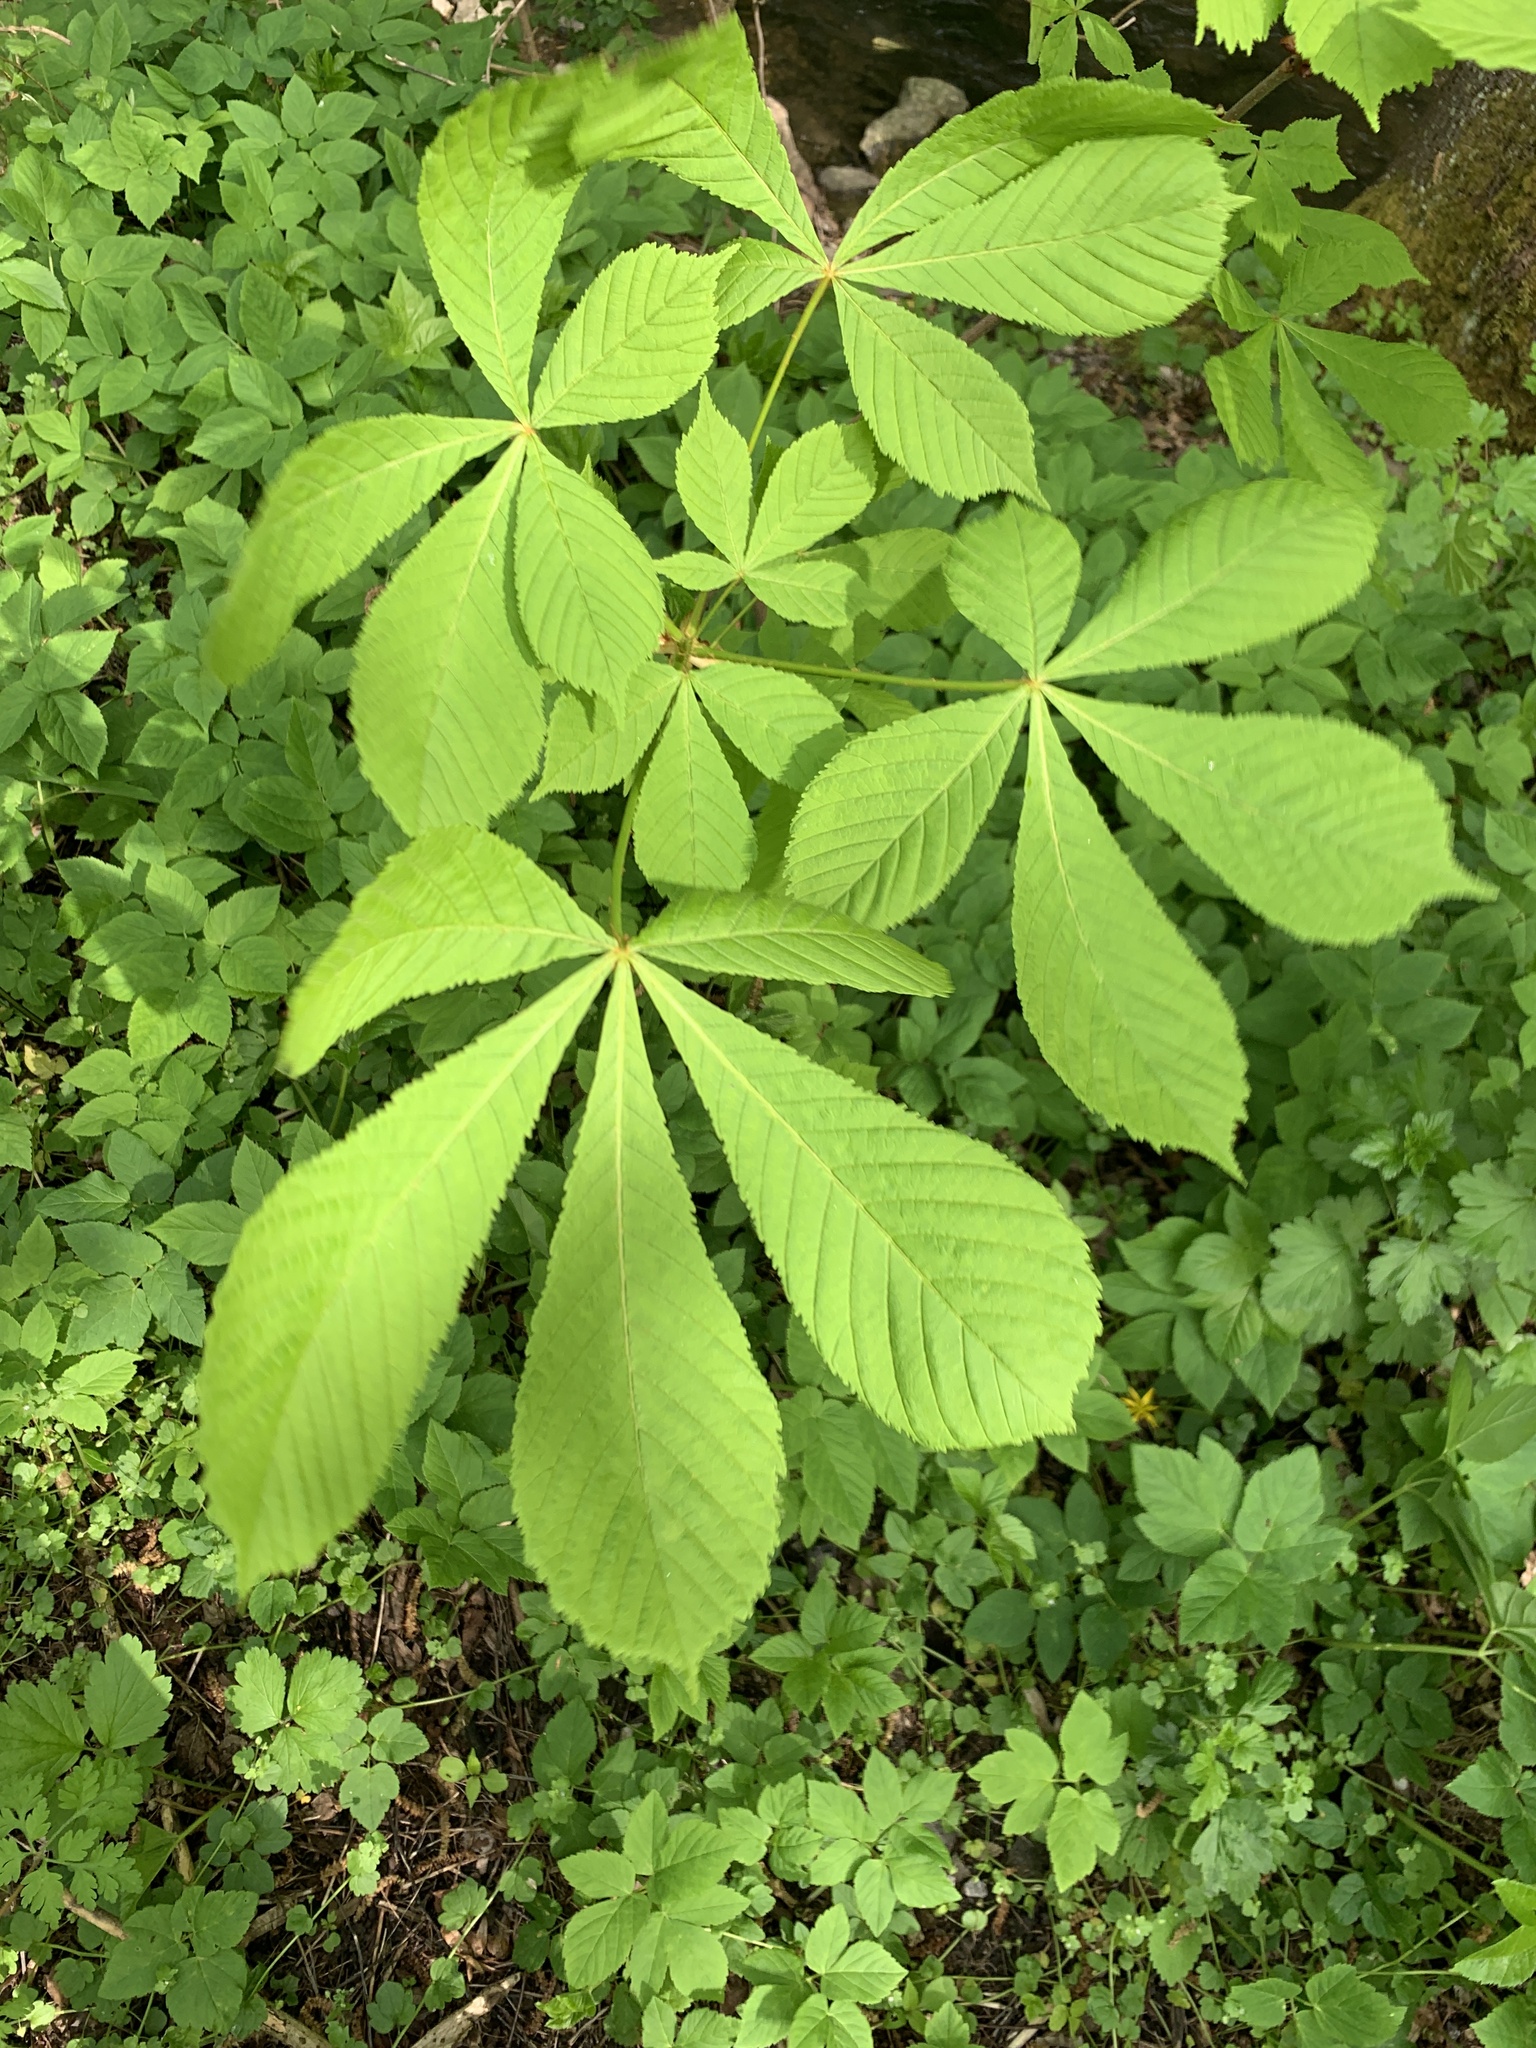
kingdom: Plantae
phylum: Tracheophyta
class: Magnoliopsida
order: Sapindales
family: Sapindaceae
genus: Aesculus
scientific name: Aesculus hippocastanum
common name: Horse-chestnut
